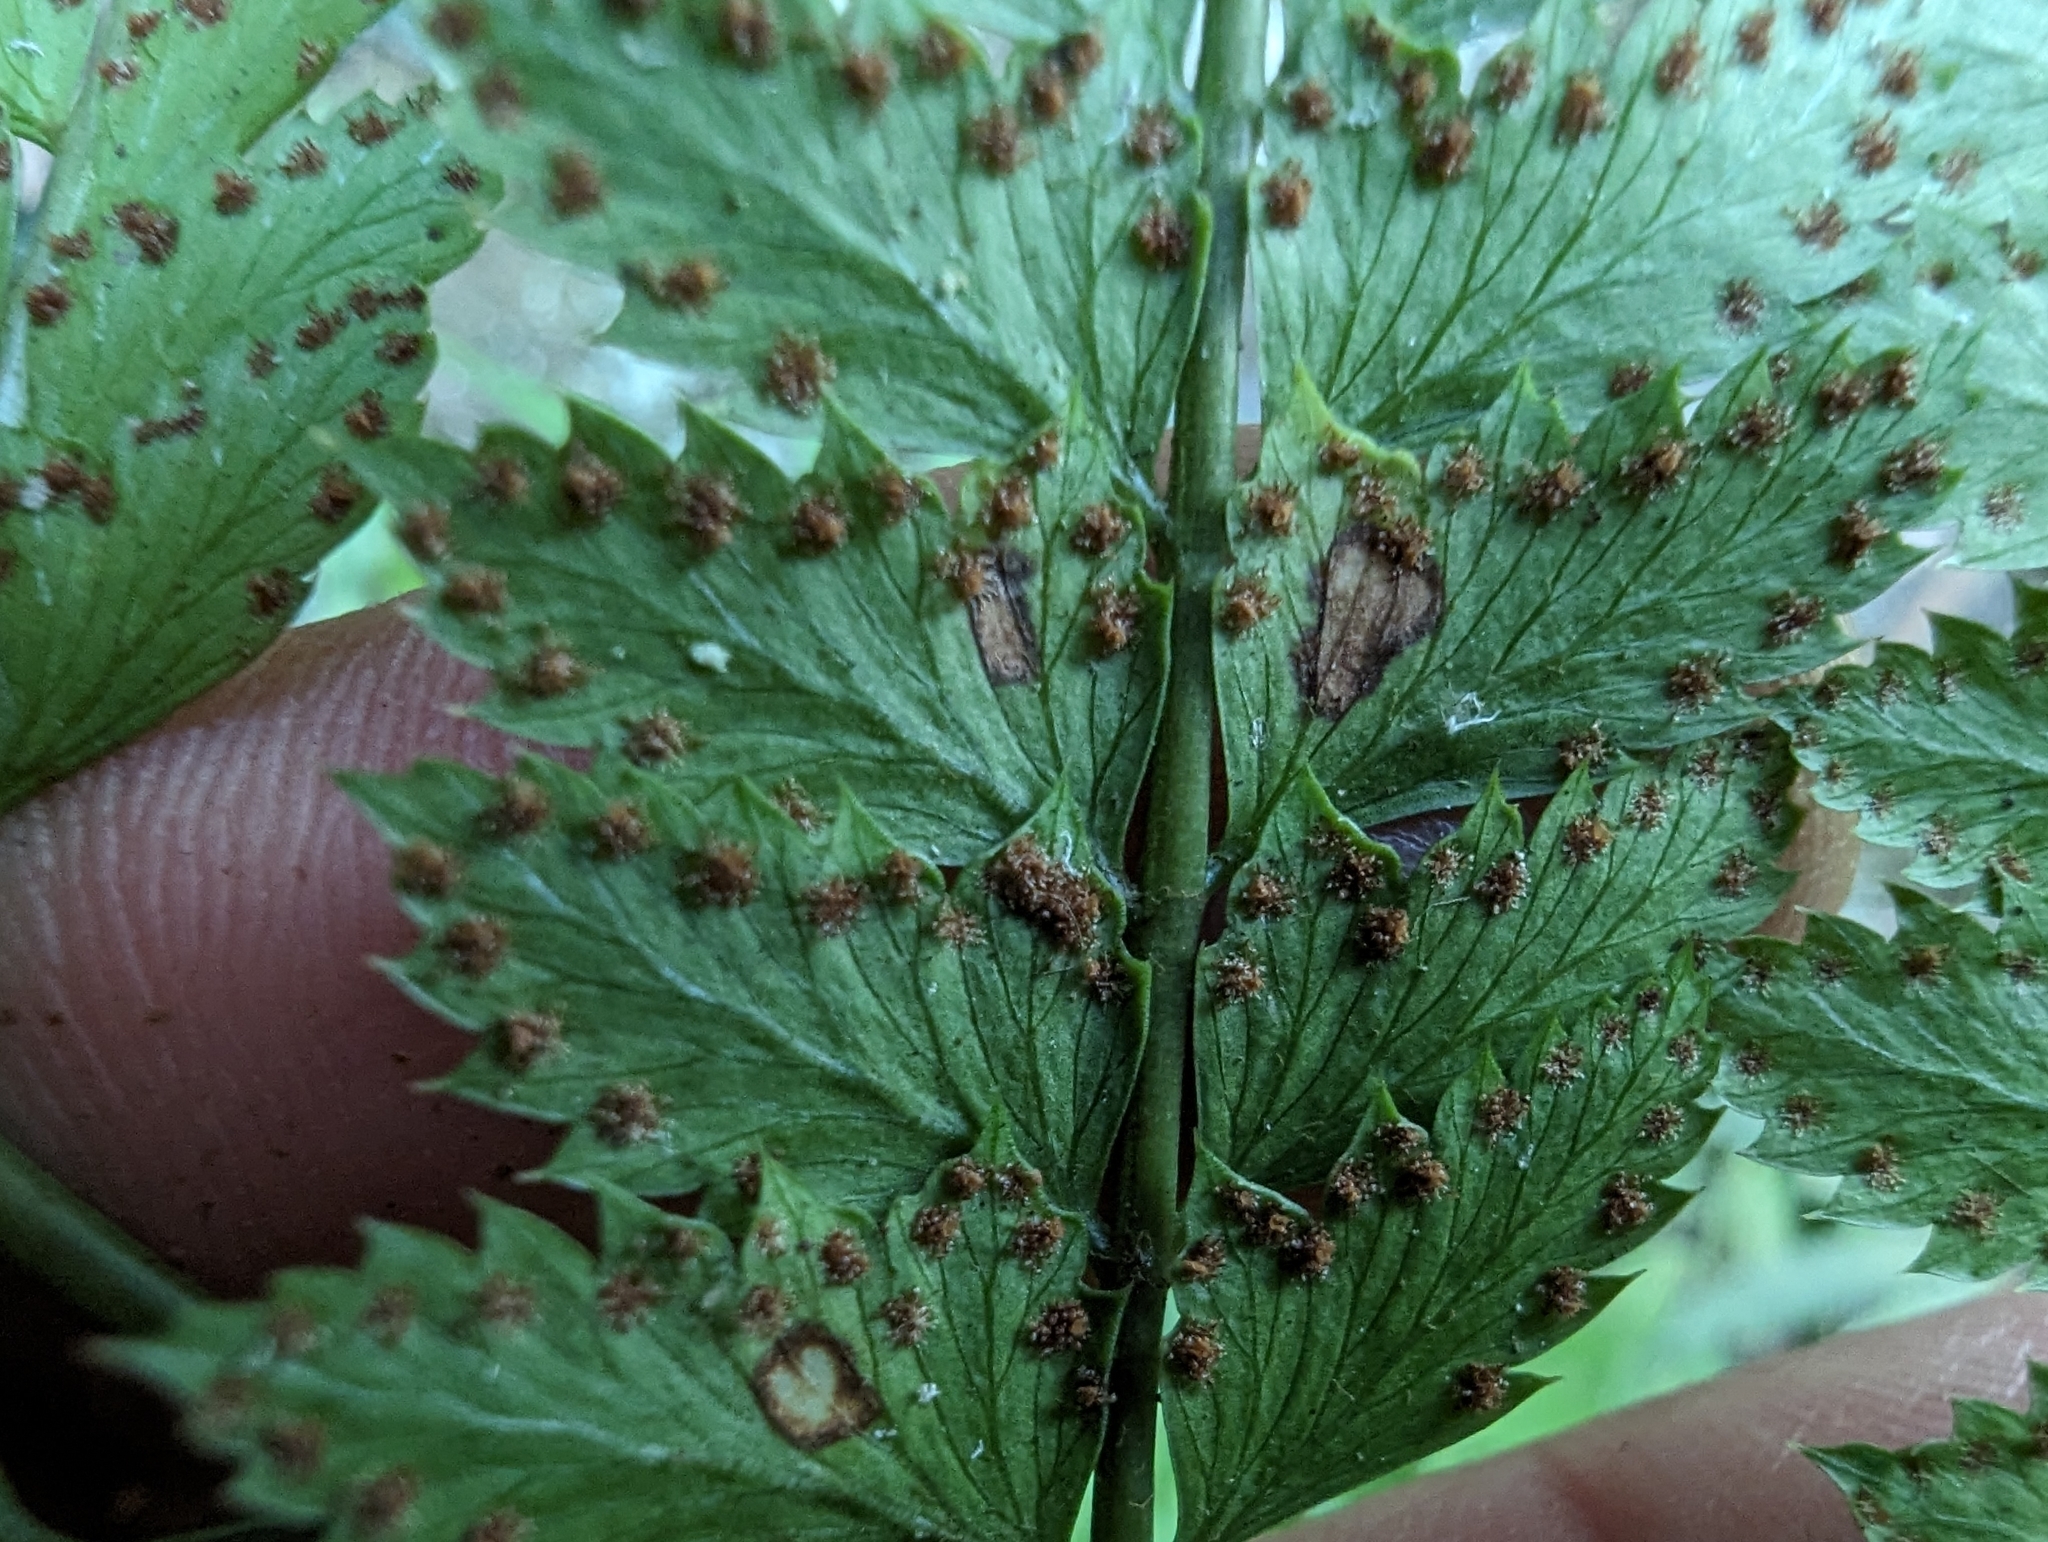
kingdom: Plantae
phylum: Tracheophyta
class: Polypodiopsida
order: Polypodiales
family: Dryopteridaceae
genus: Arachniodes
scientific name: Arachniodes rhomboidea
